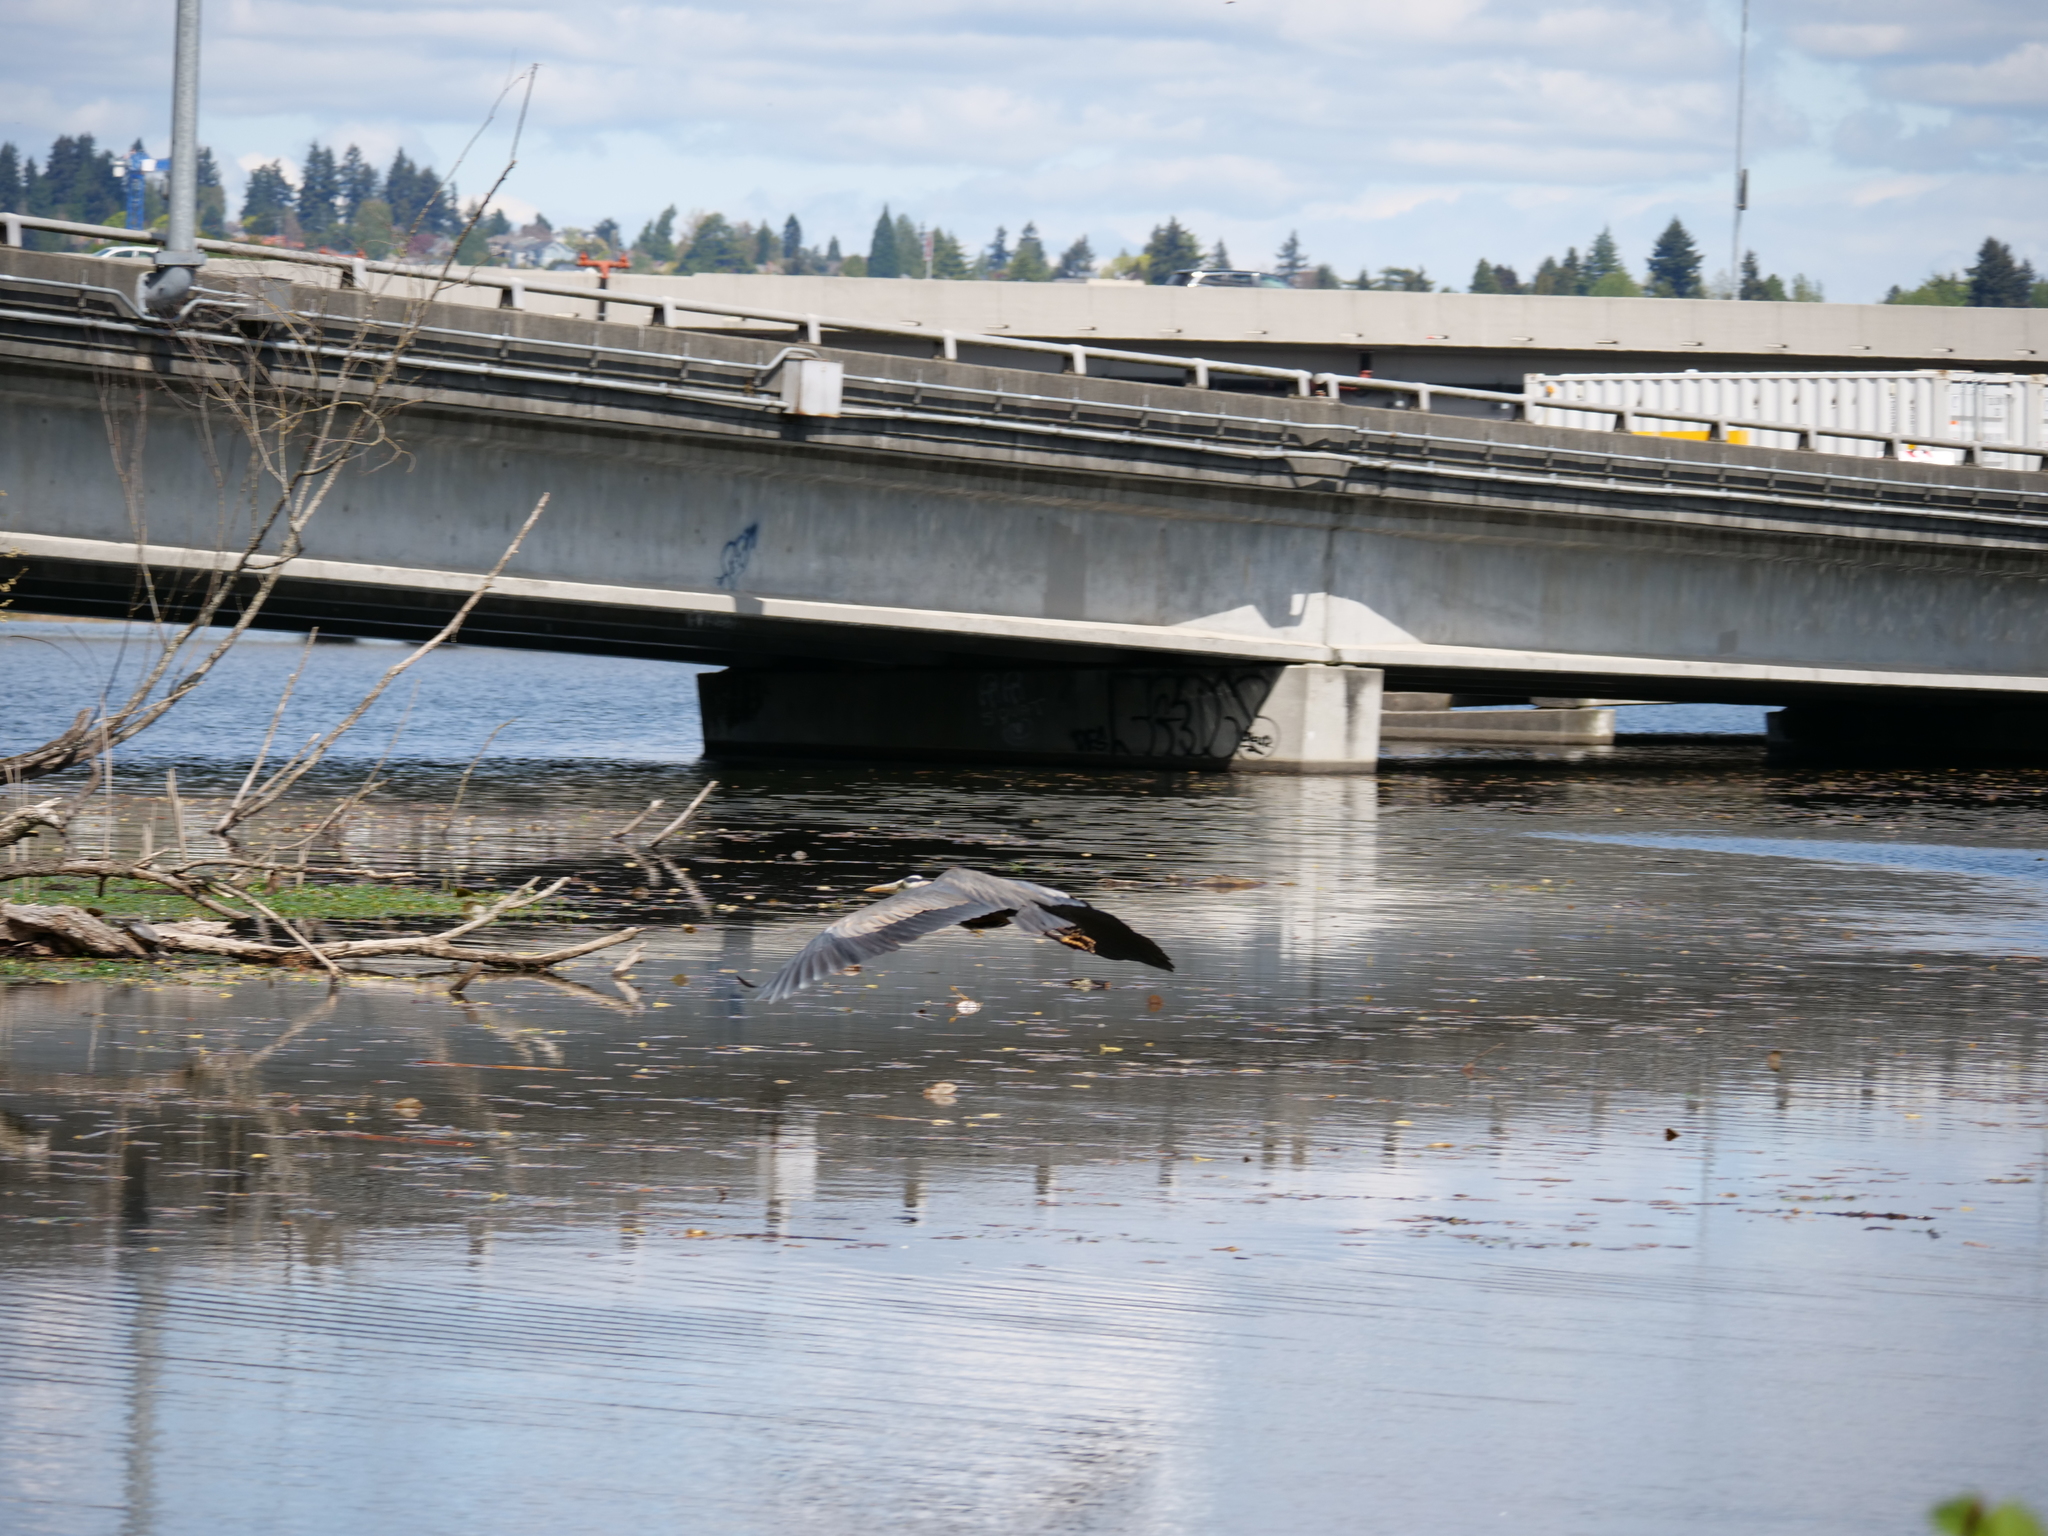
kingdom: Animalia
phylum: Chordata
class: Aves
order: Pelecaniformes
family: Ardeidae
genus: Ardea
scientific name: Ardea herodias
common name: Great blue heron
